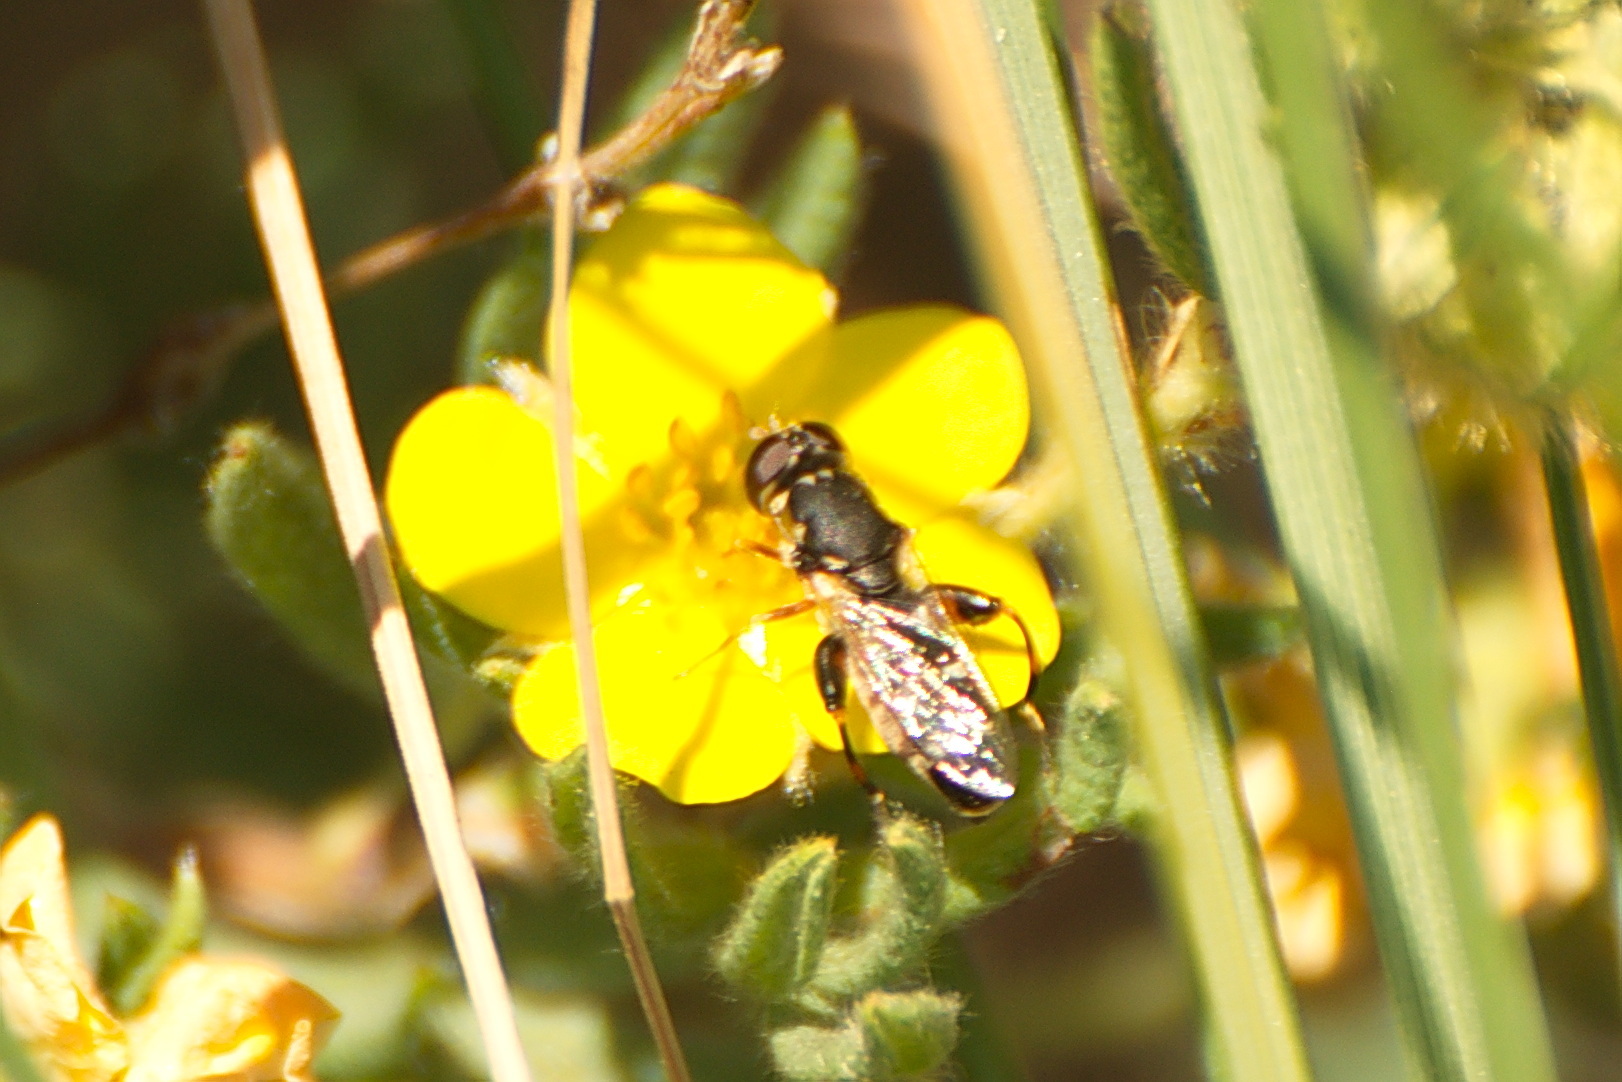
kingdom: Animalia
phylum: Arthropoda
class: Insecta
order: Diptera
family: Syrphidae
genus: Syritta
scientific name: Syritta pipiens
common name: Hover fly
